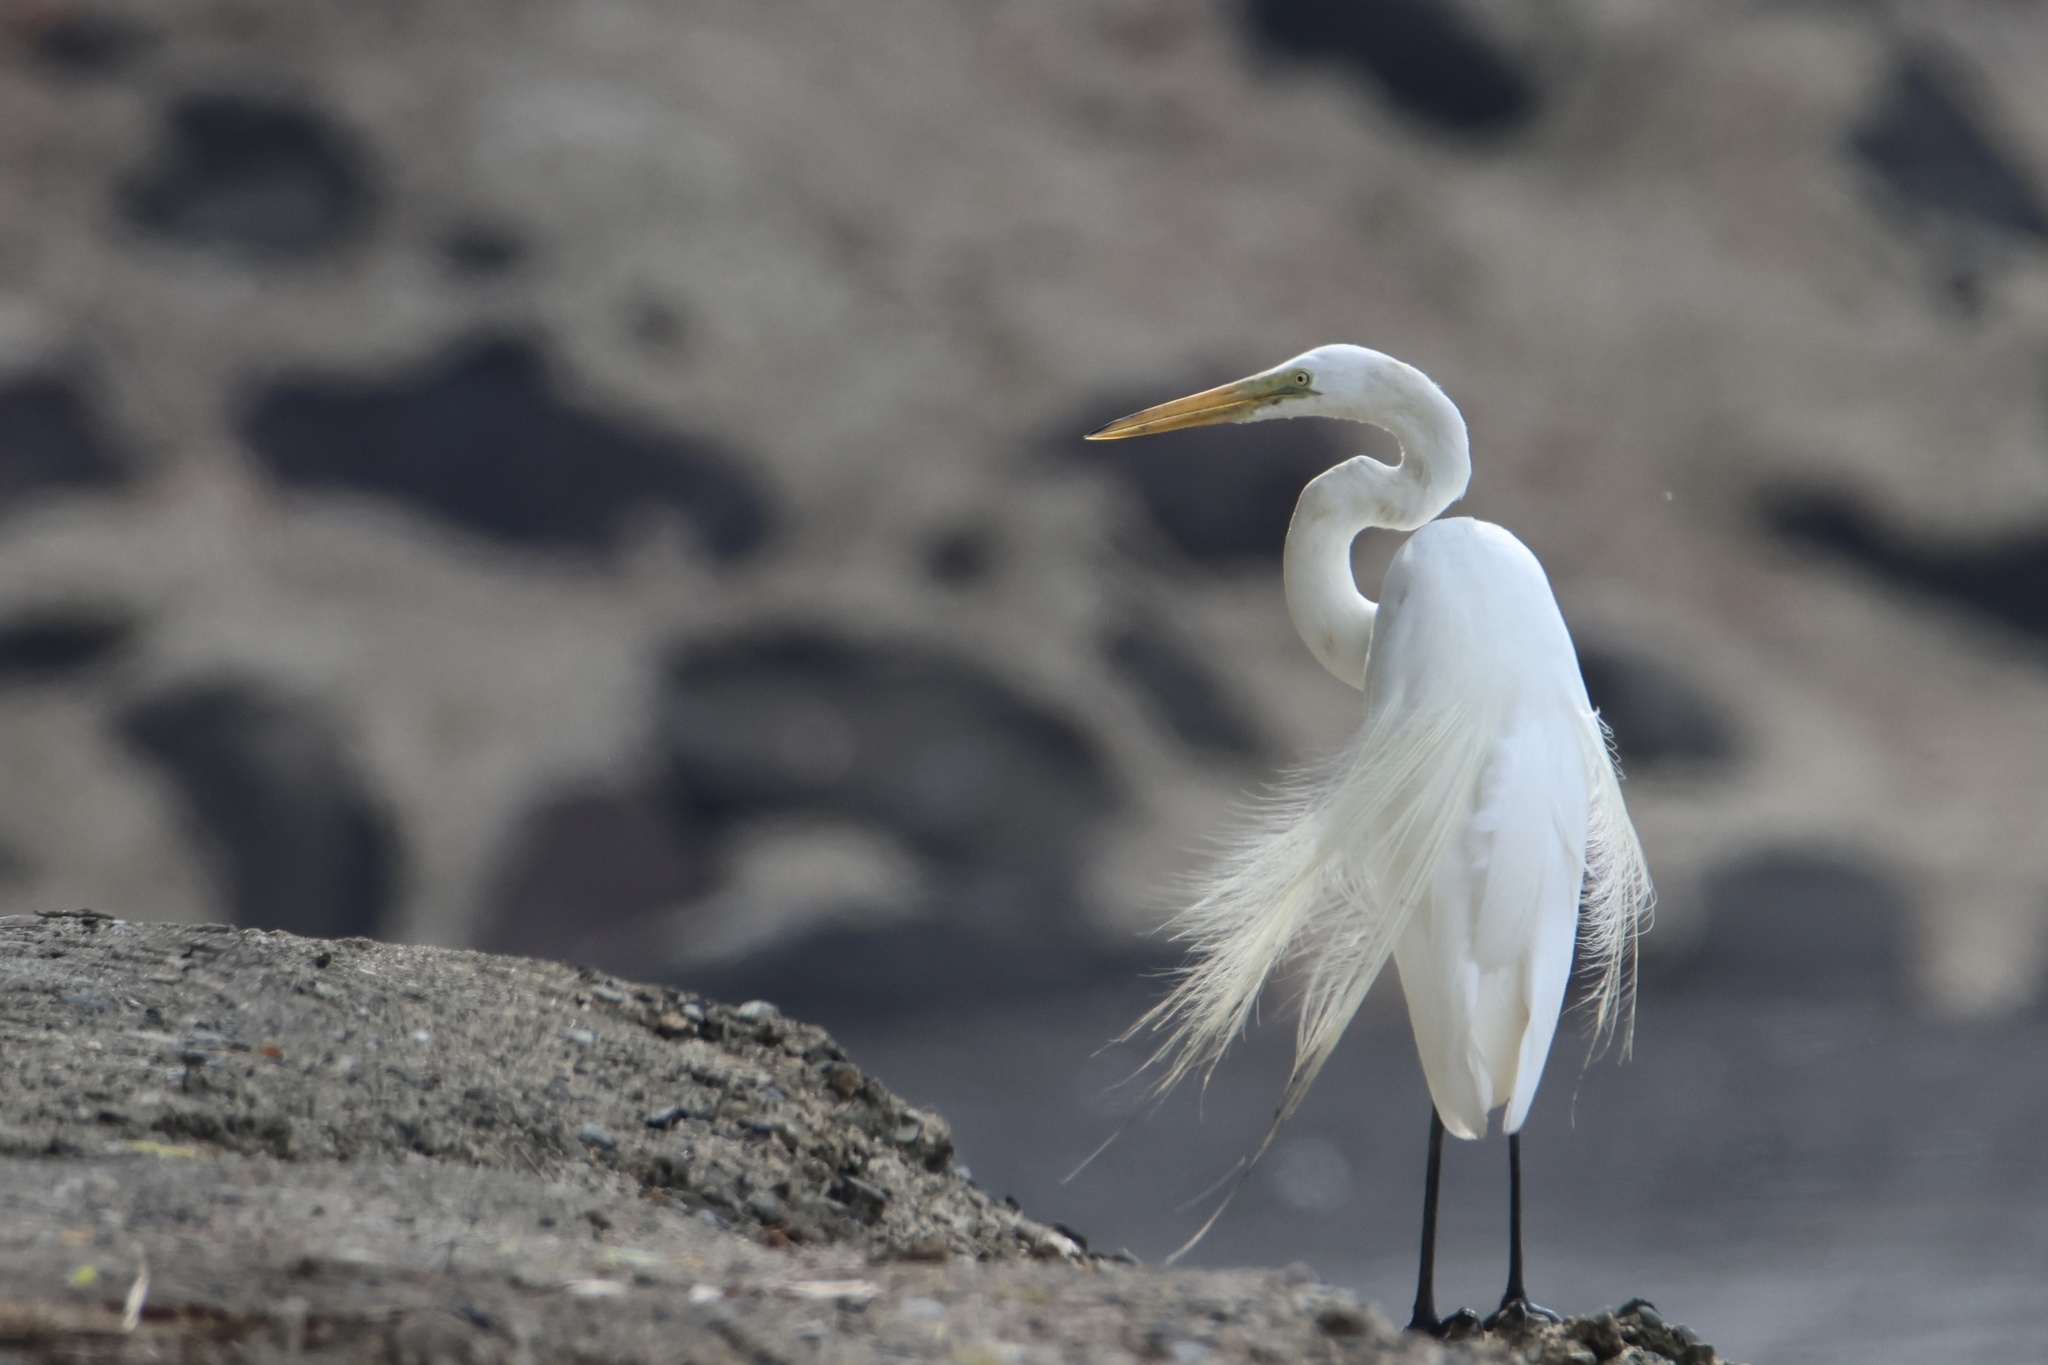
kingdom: Animalia
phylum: Chordata
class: Aves
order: Pelecaniformes
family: Ardeidae
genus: Ardea
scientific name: Ardea alba
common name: Great egret
